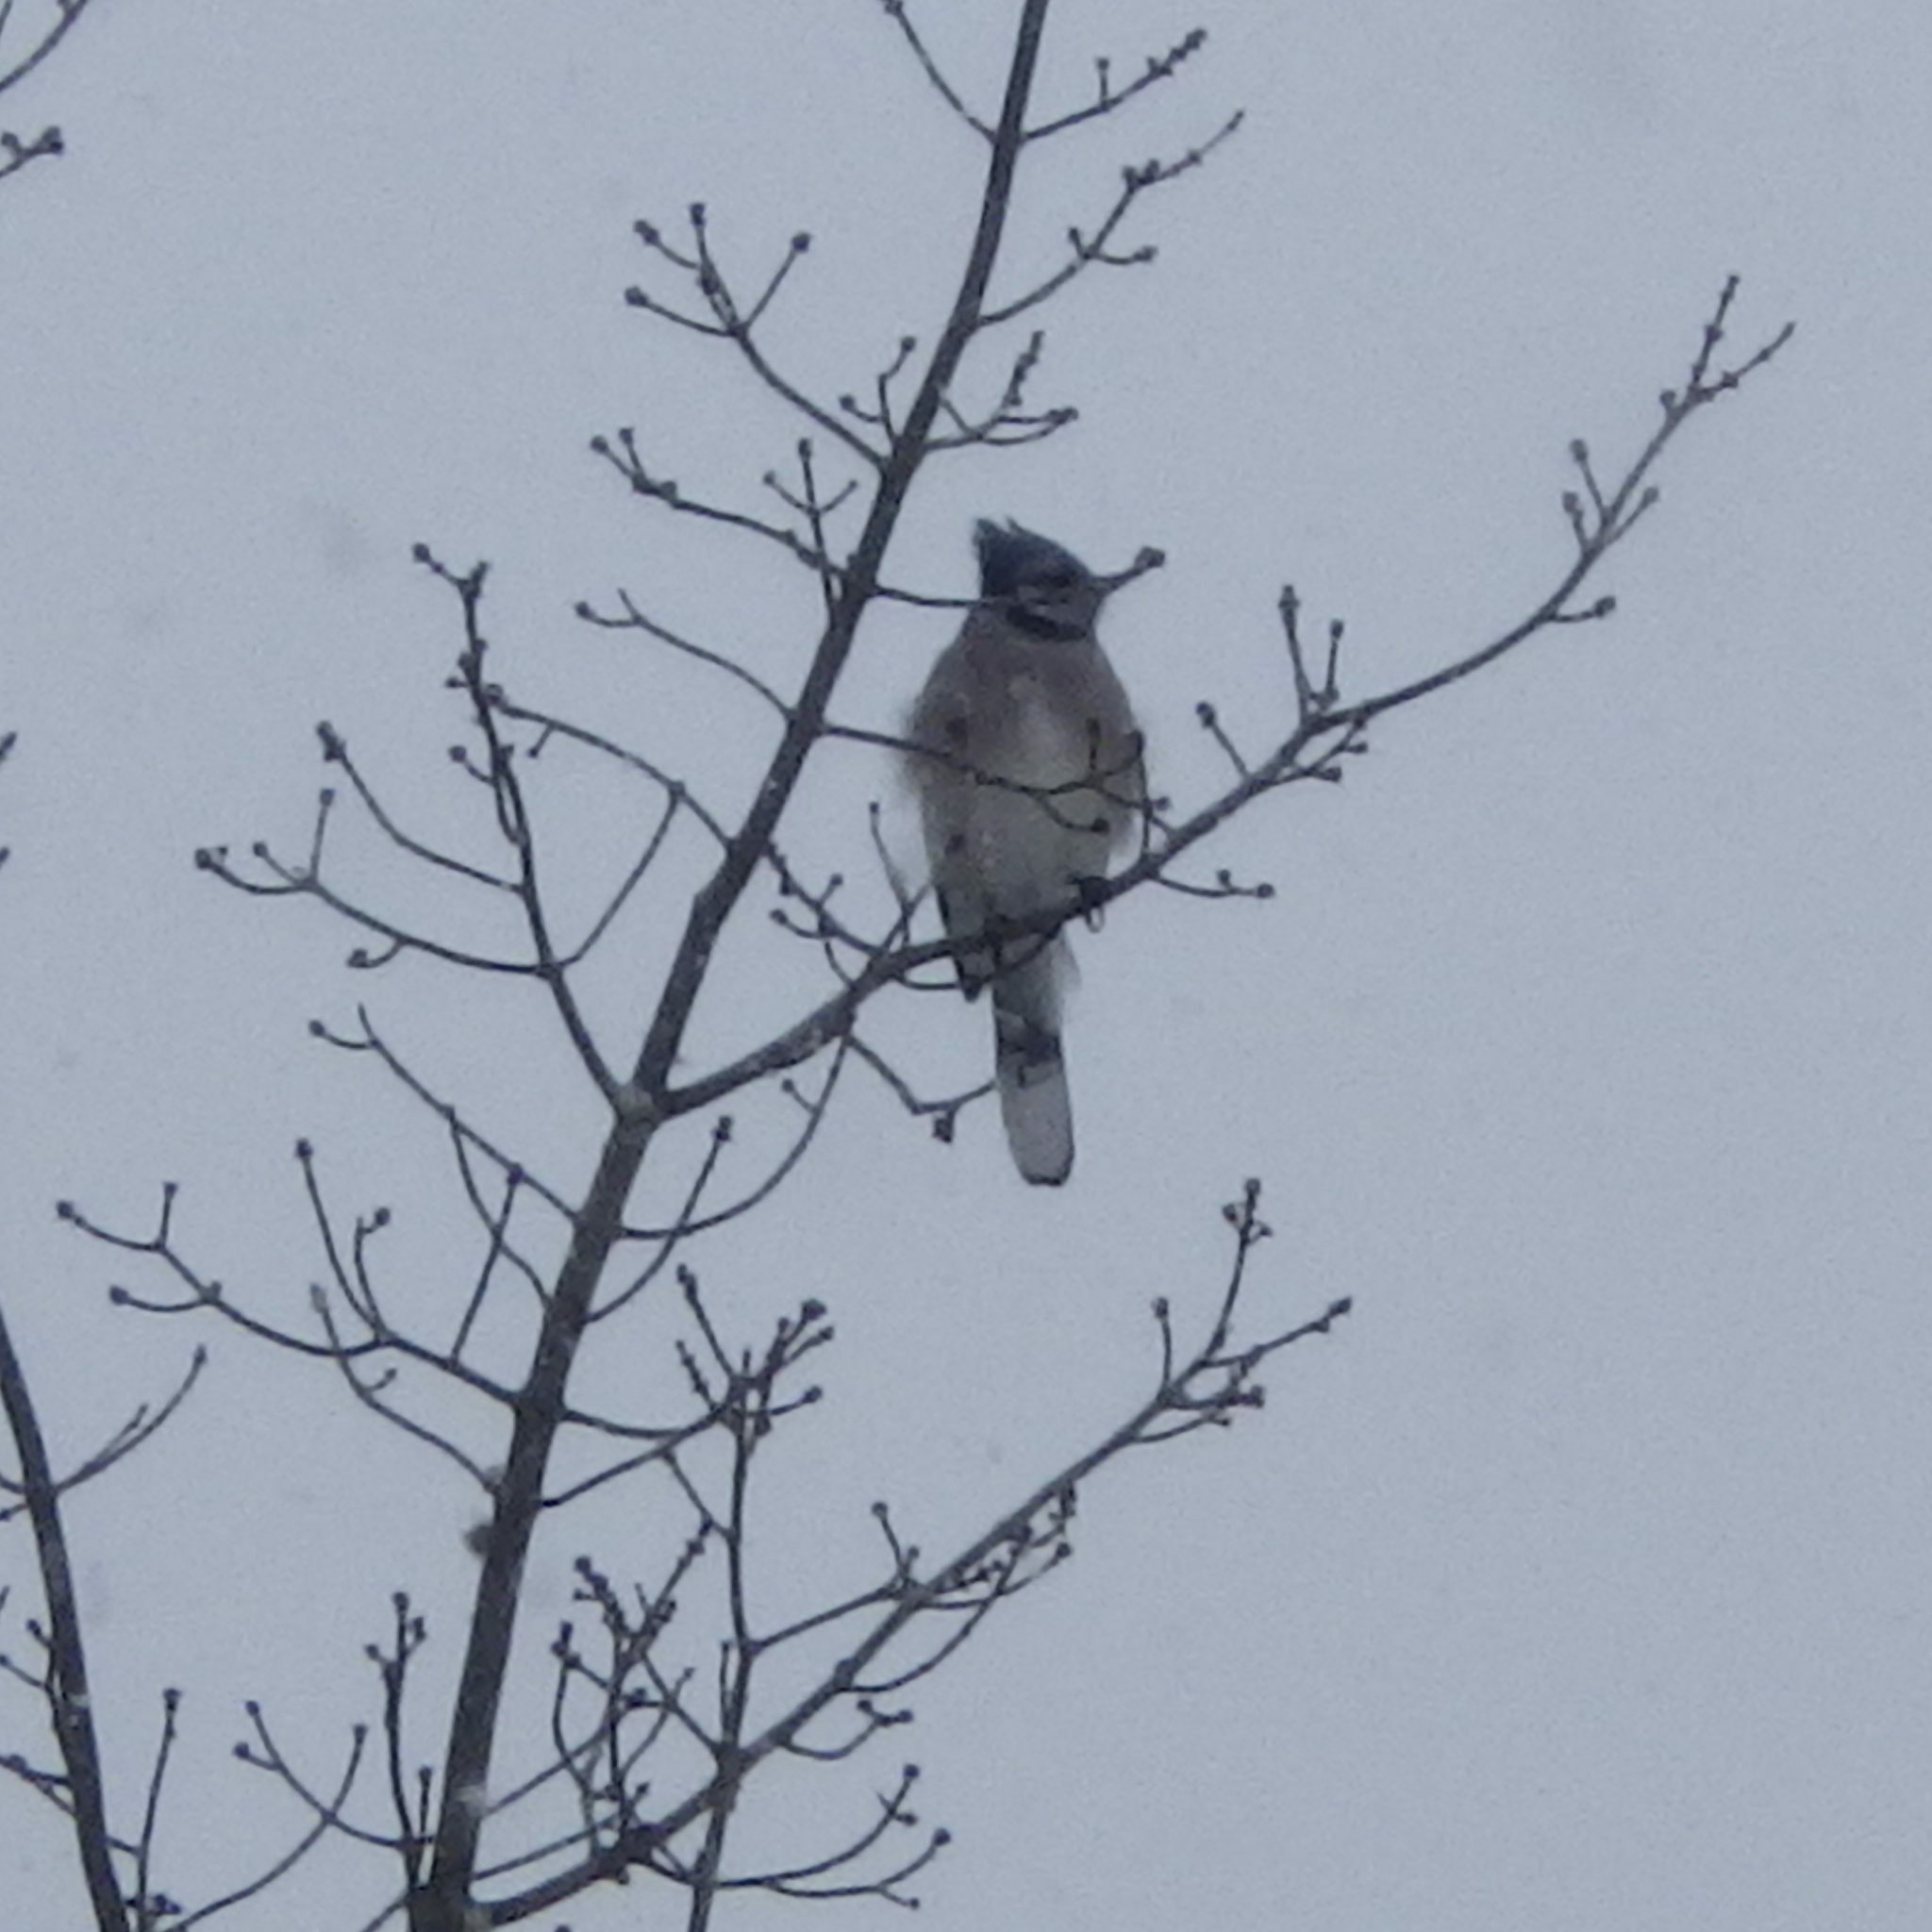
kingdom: Animalia
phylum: Chordata
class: Aves
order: Passeriformes
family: Corvidae
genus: Cyanocitta
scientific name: Cyanocitta cristata
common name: Blue jay
